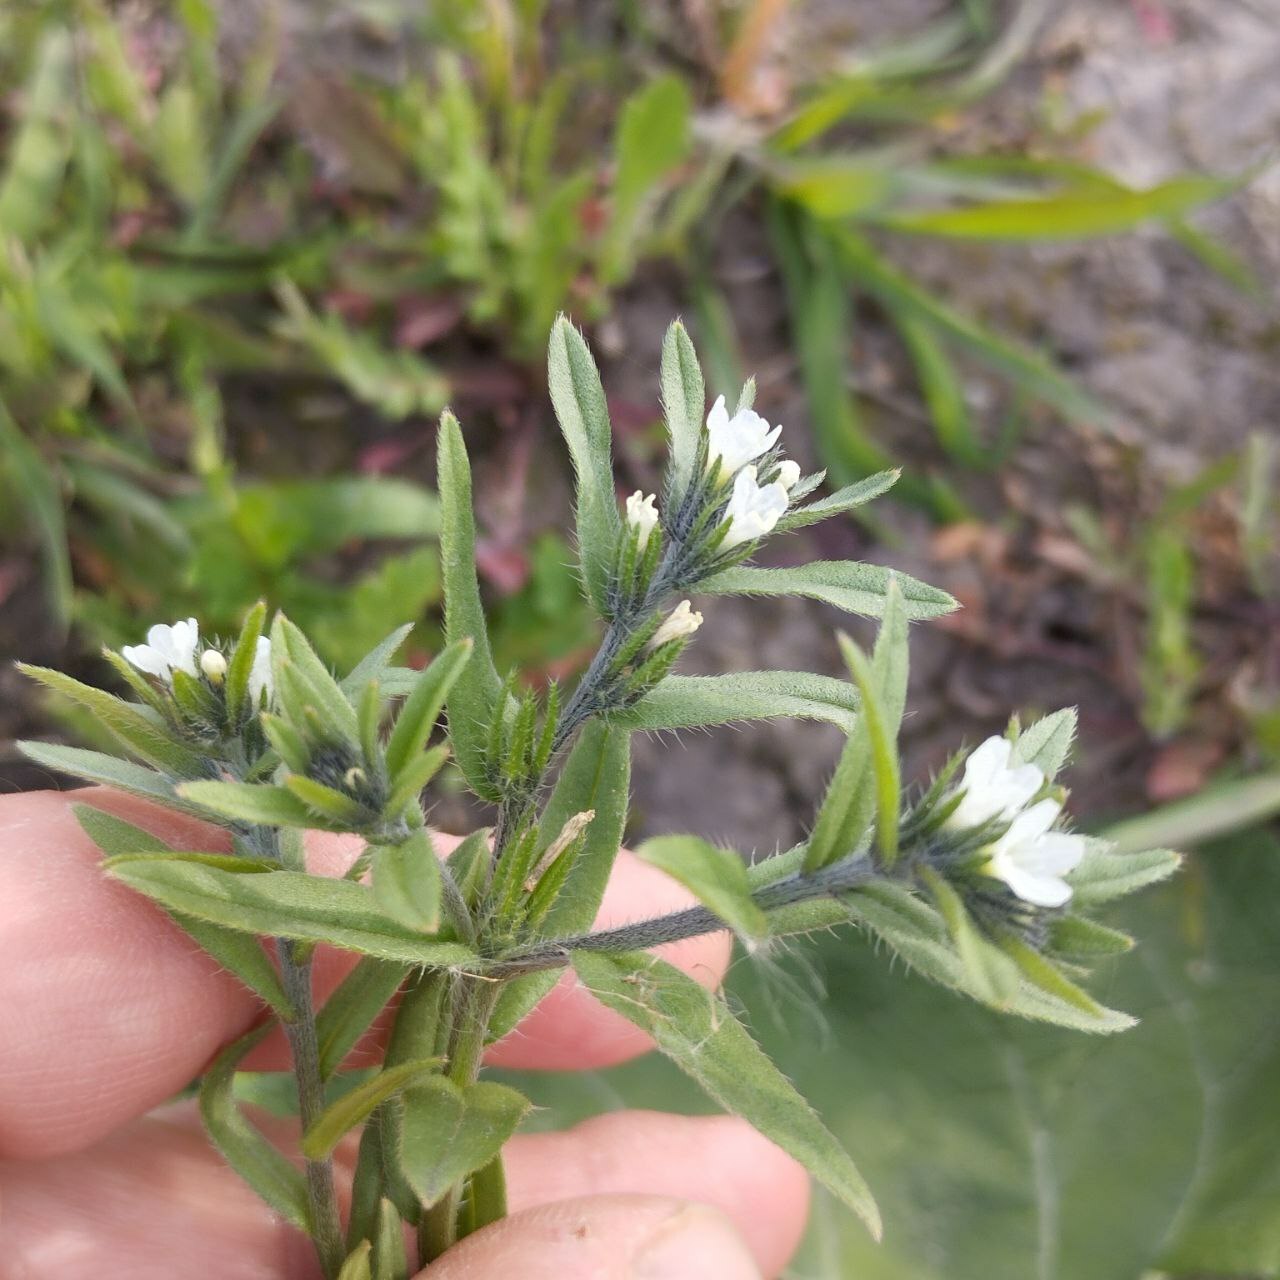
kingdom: Plantae
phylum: Tracheophyta
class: Magnoliopsida
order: Boraginales
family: Boraginaceae
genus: Buglossoides
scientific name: Buglossoides arvensis
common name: Corn gromwell
